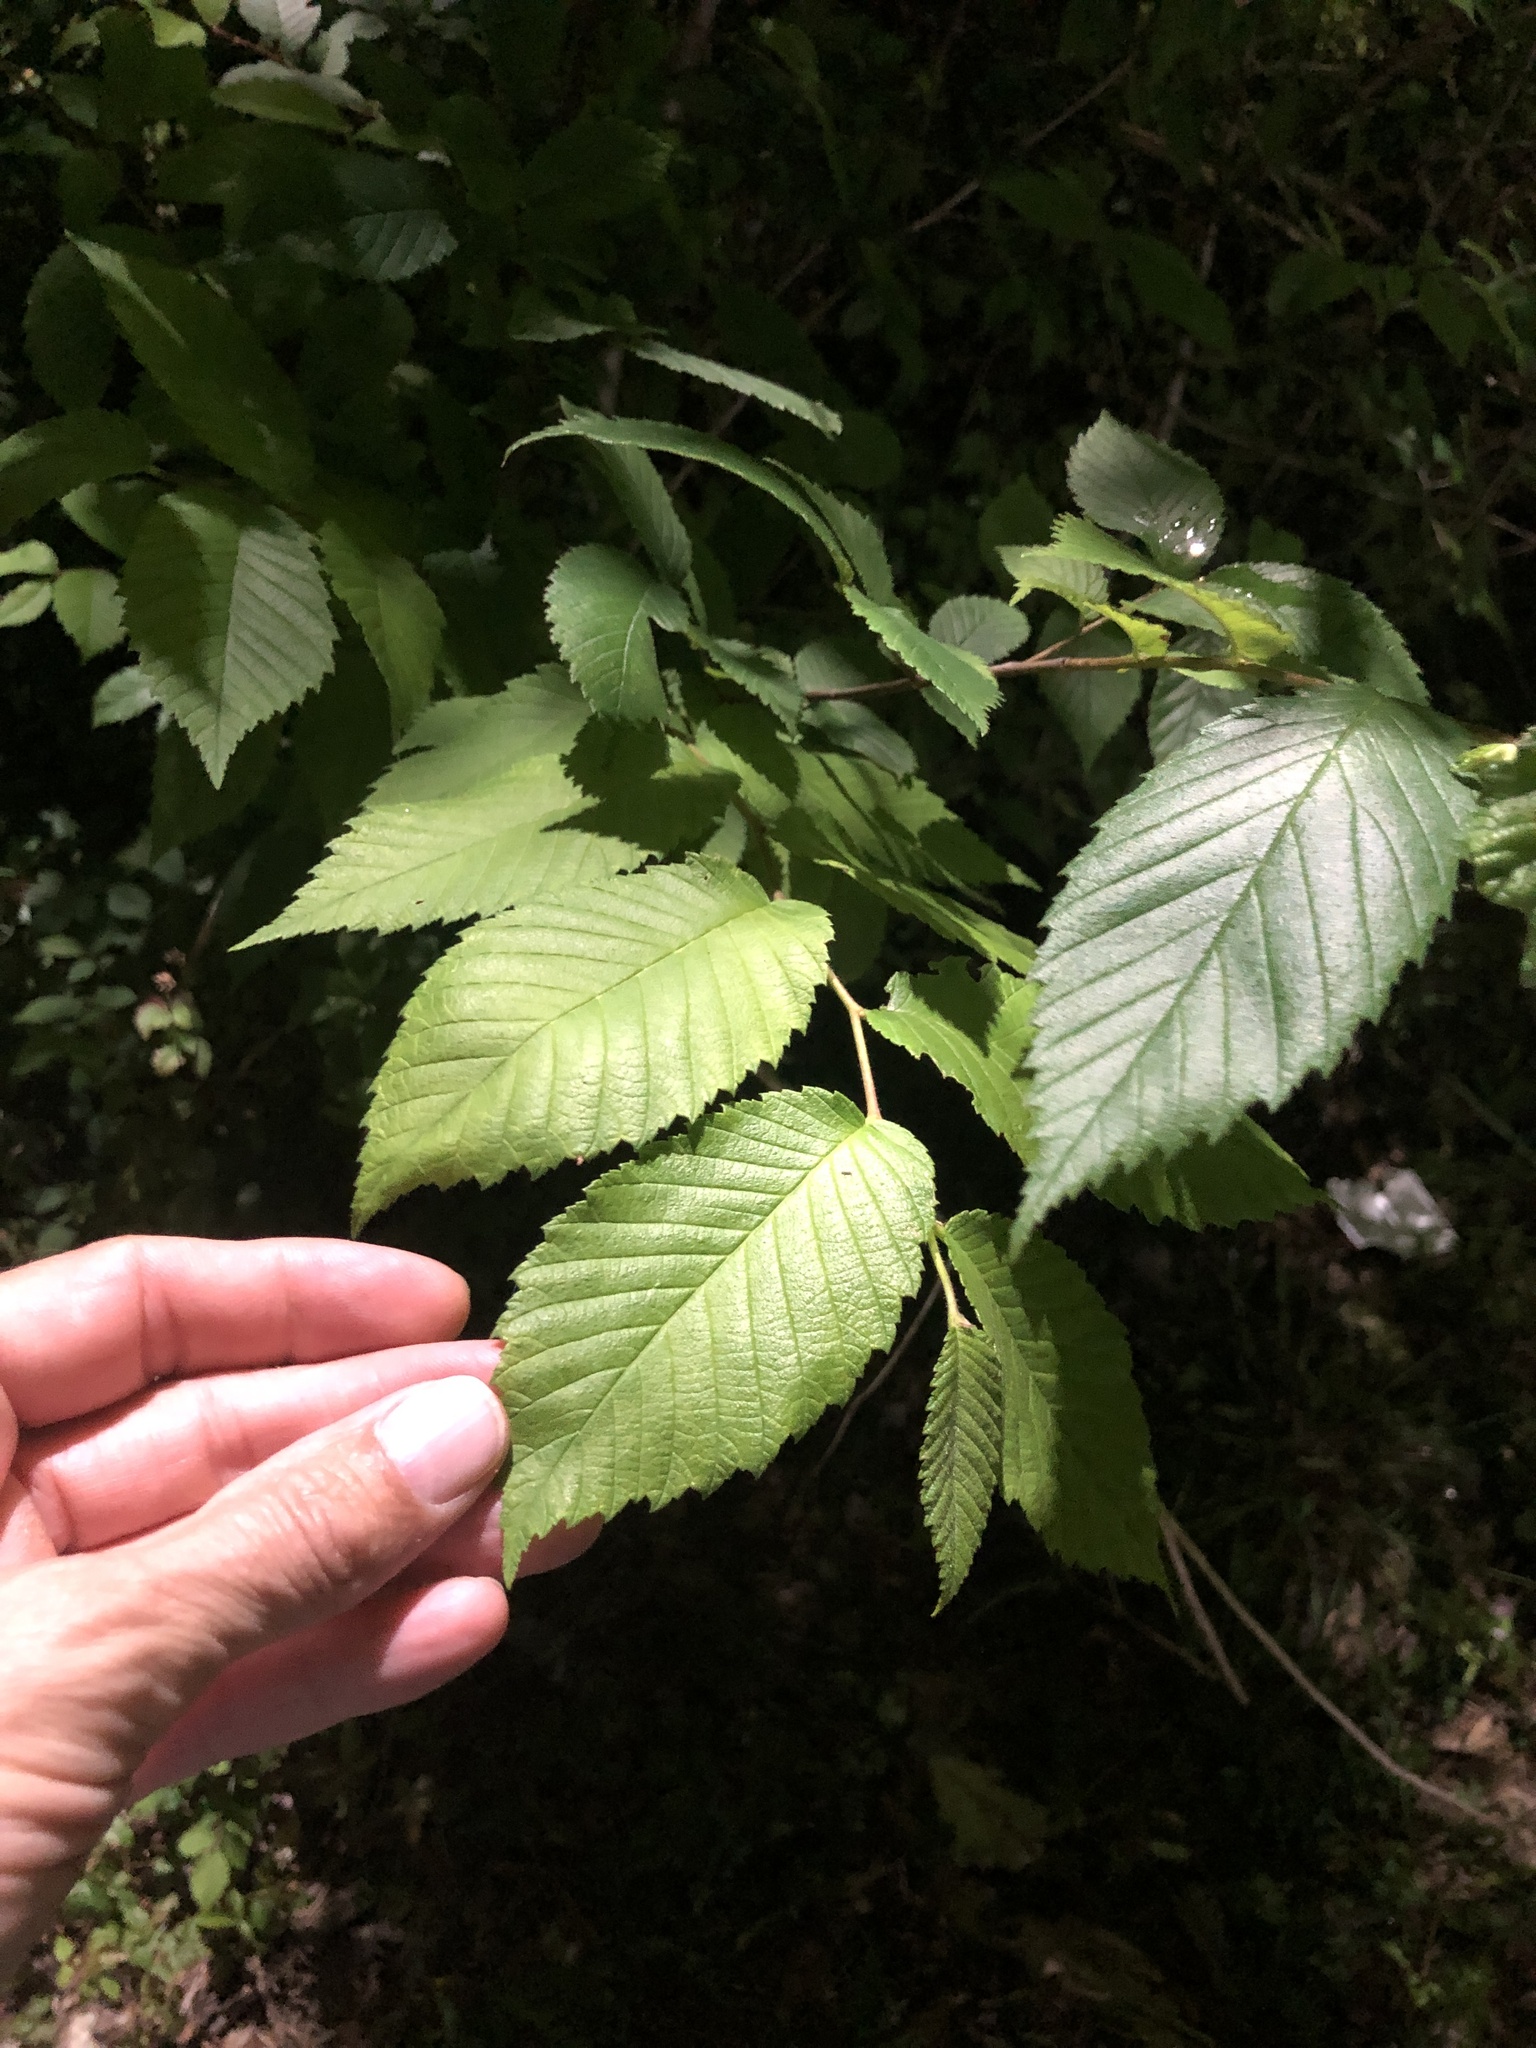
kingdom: Plantae
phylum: Tracheophyta
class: Magnoliopsida
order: Rosales
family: Ulmaceae
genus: Ulmus
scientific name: Ulmus americana
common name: American elm
